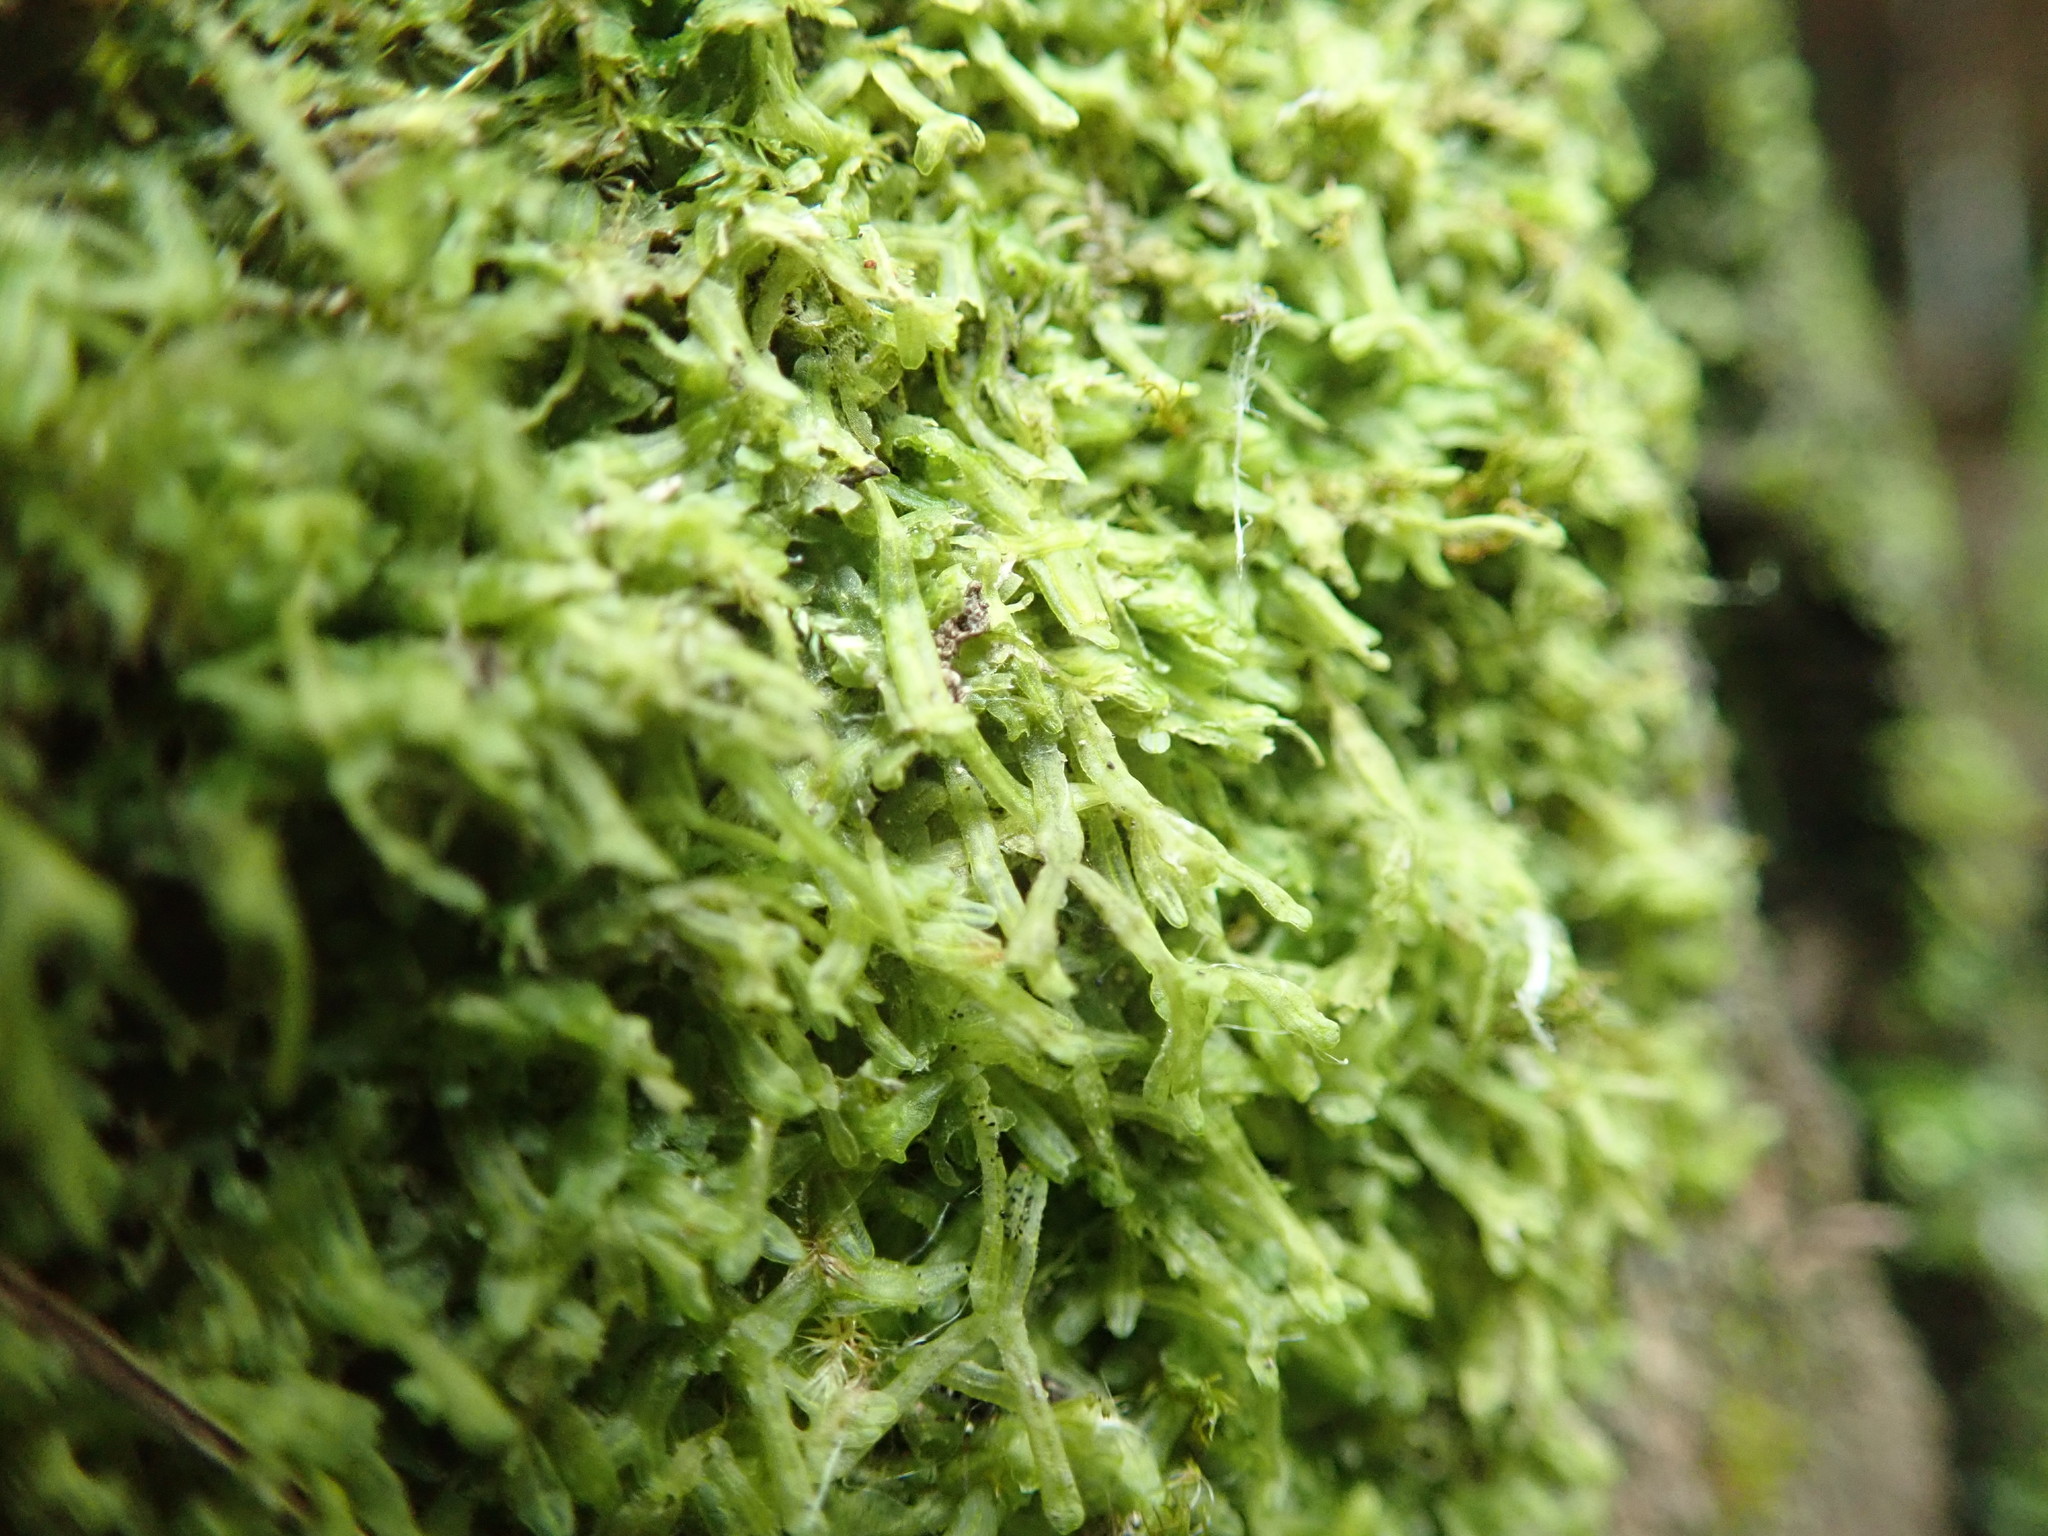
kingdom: Plantae
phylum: Marchantiophyta
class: Jungermanniopsida
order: Metzgeriales
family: Metzgeriaceae
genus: Metzgeria
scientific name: Metzgeria conjugata
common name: Rock veilwort
